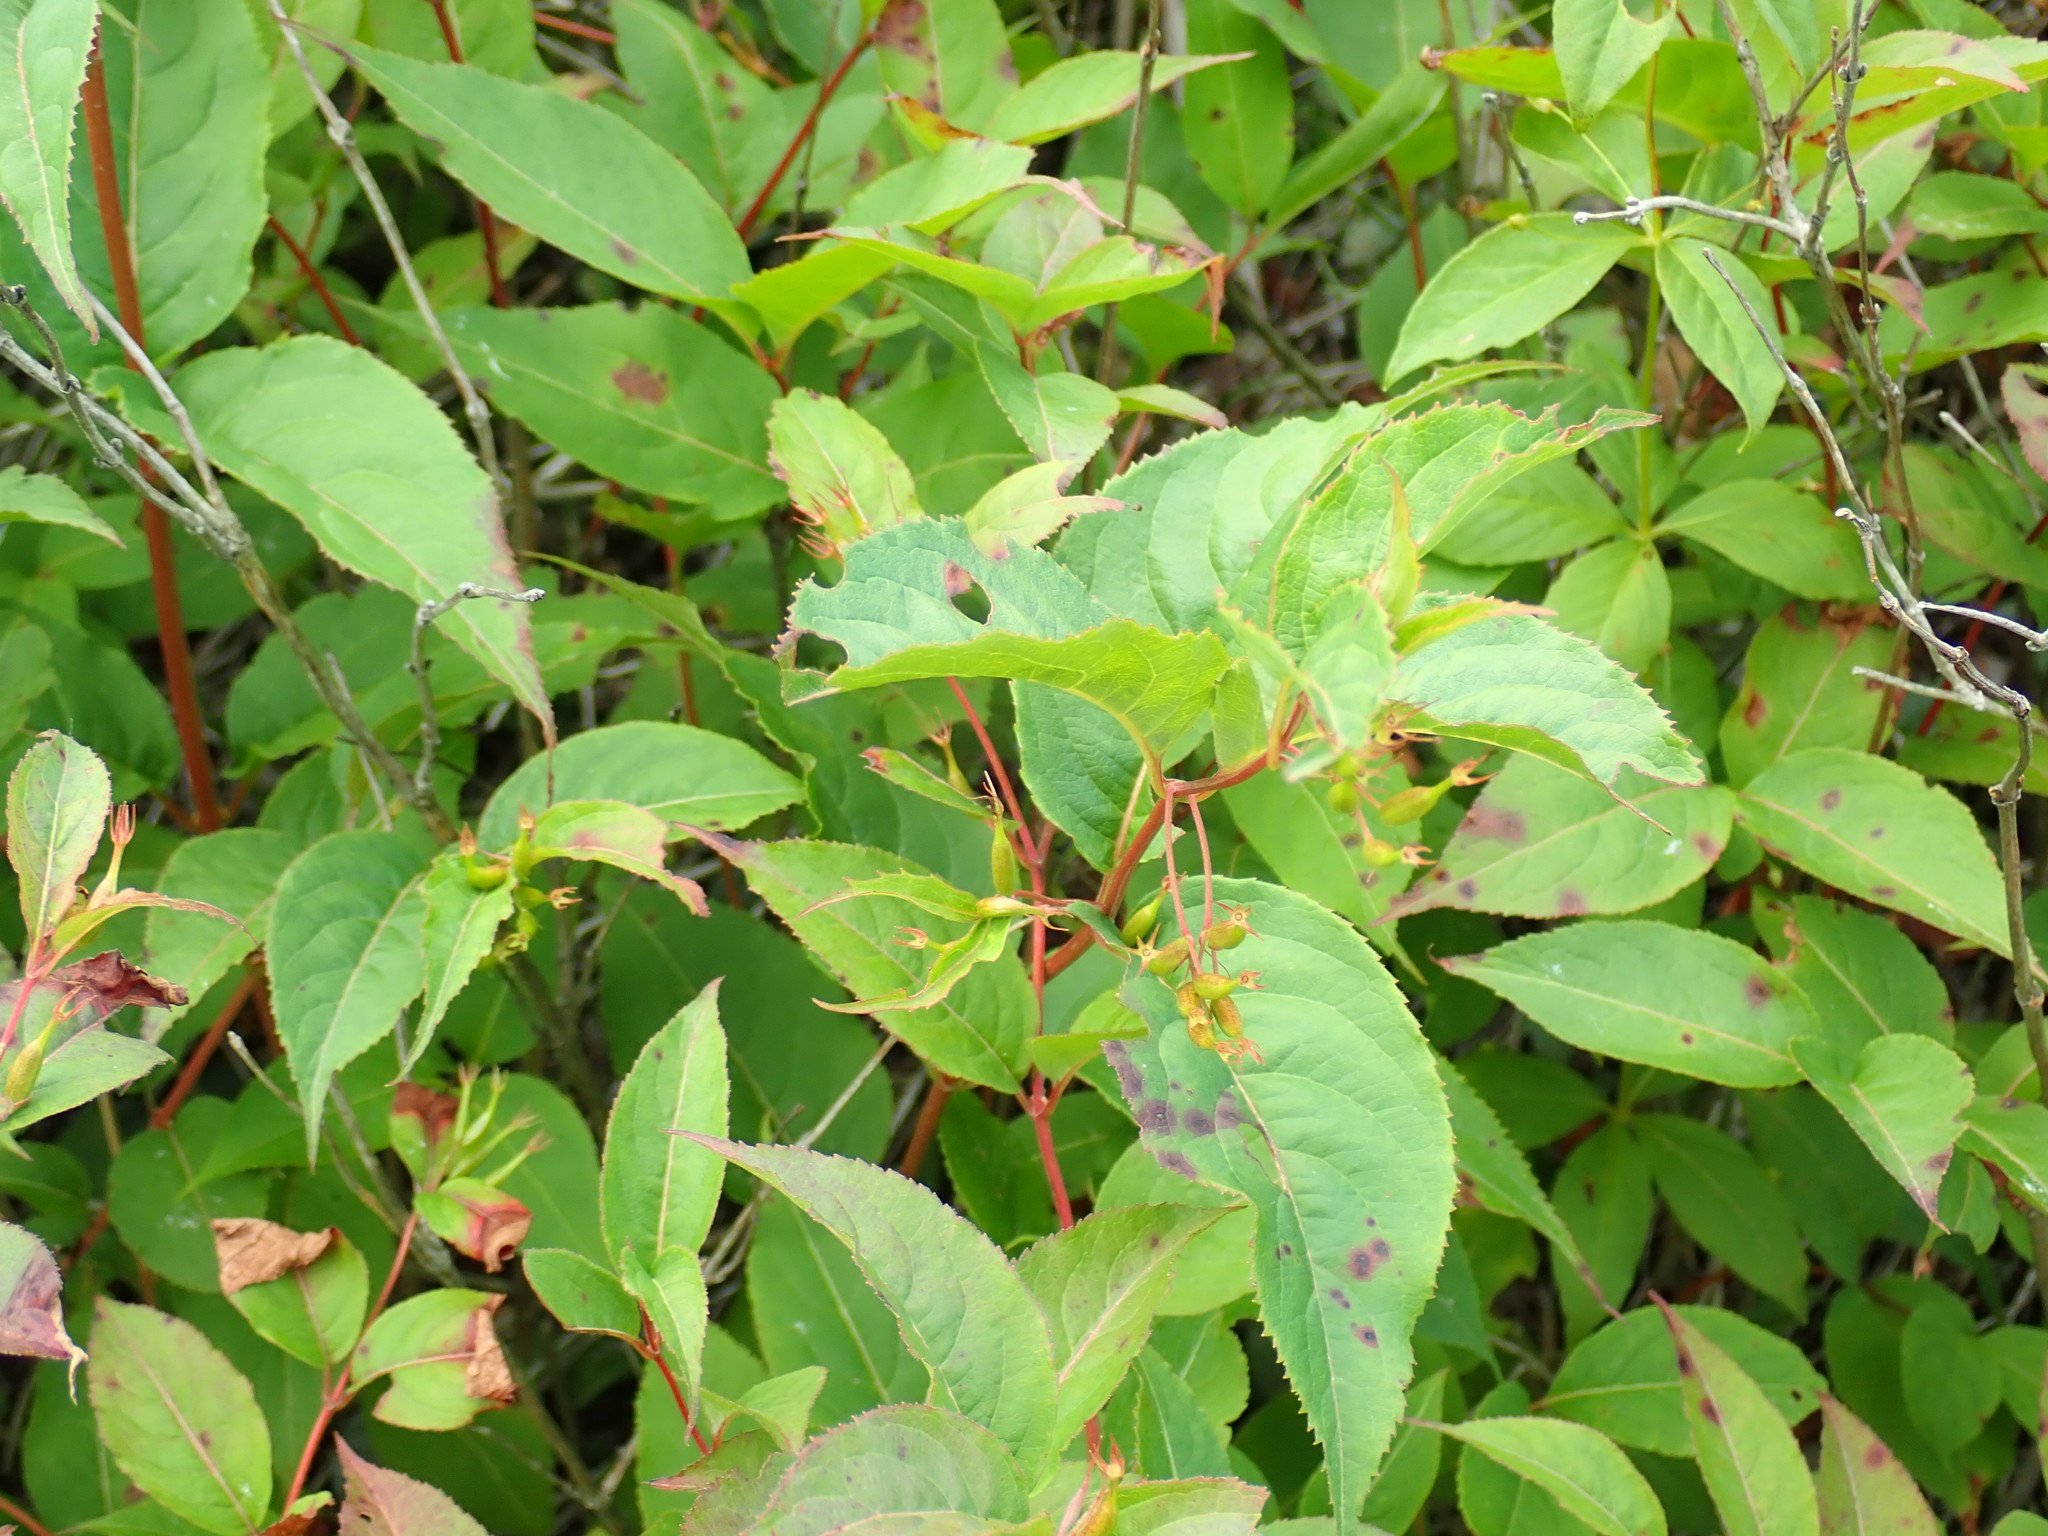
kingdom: Plantae
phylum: Tracheophyta
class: Magnoliopsida
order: Dipsacales
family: Caprifoliaceae
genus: Diervilla
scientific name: Diervilla lonicera
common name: Bush-honeysuckle
